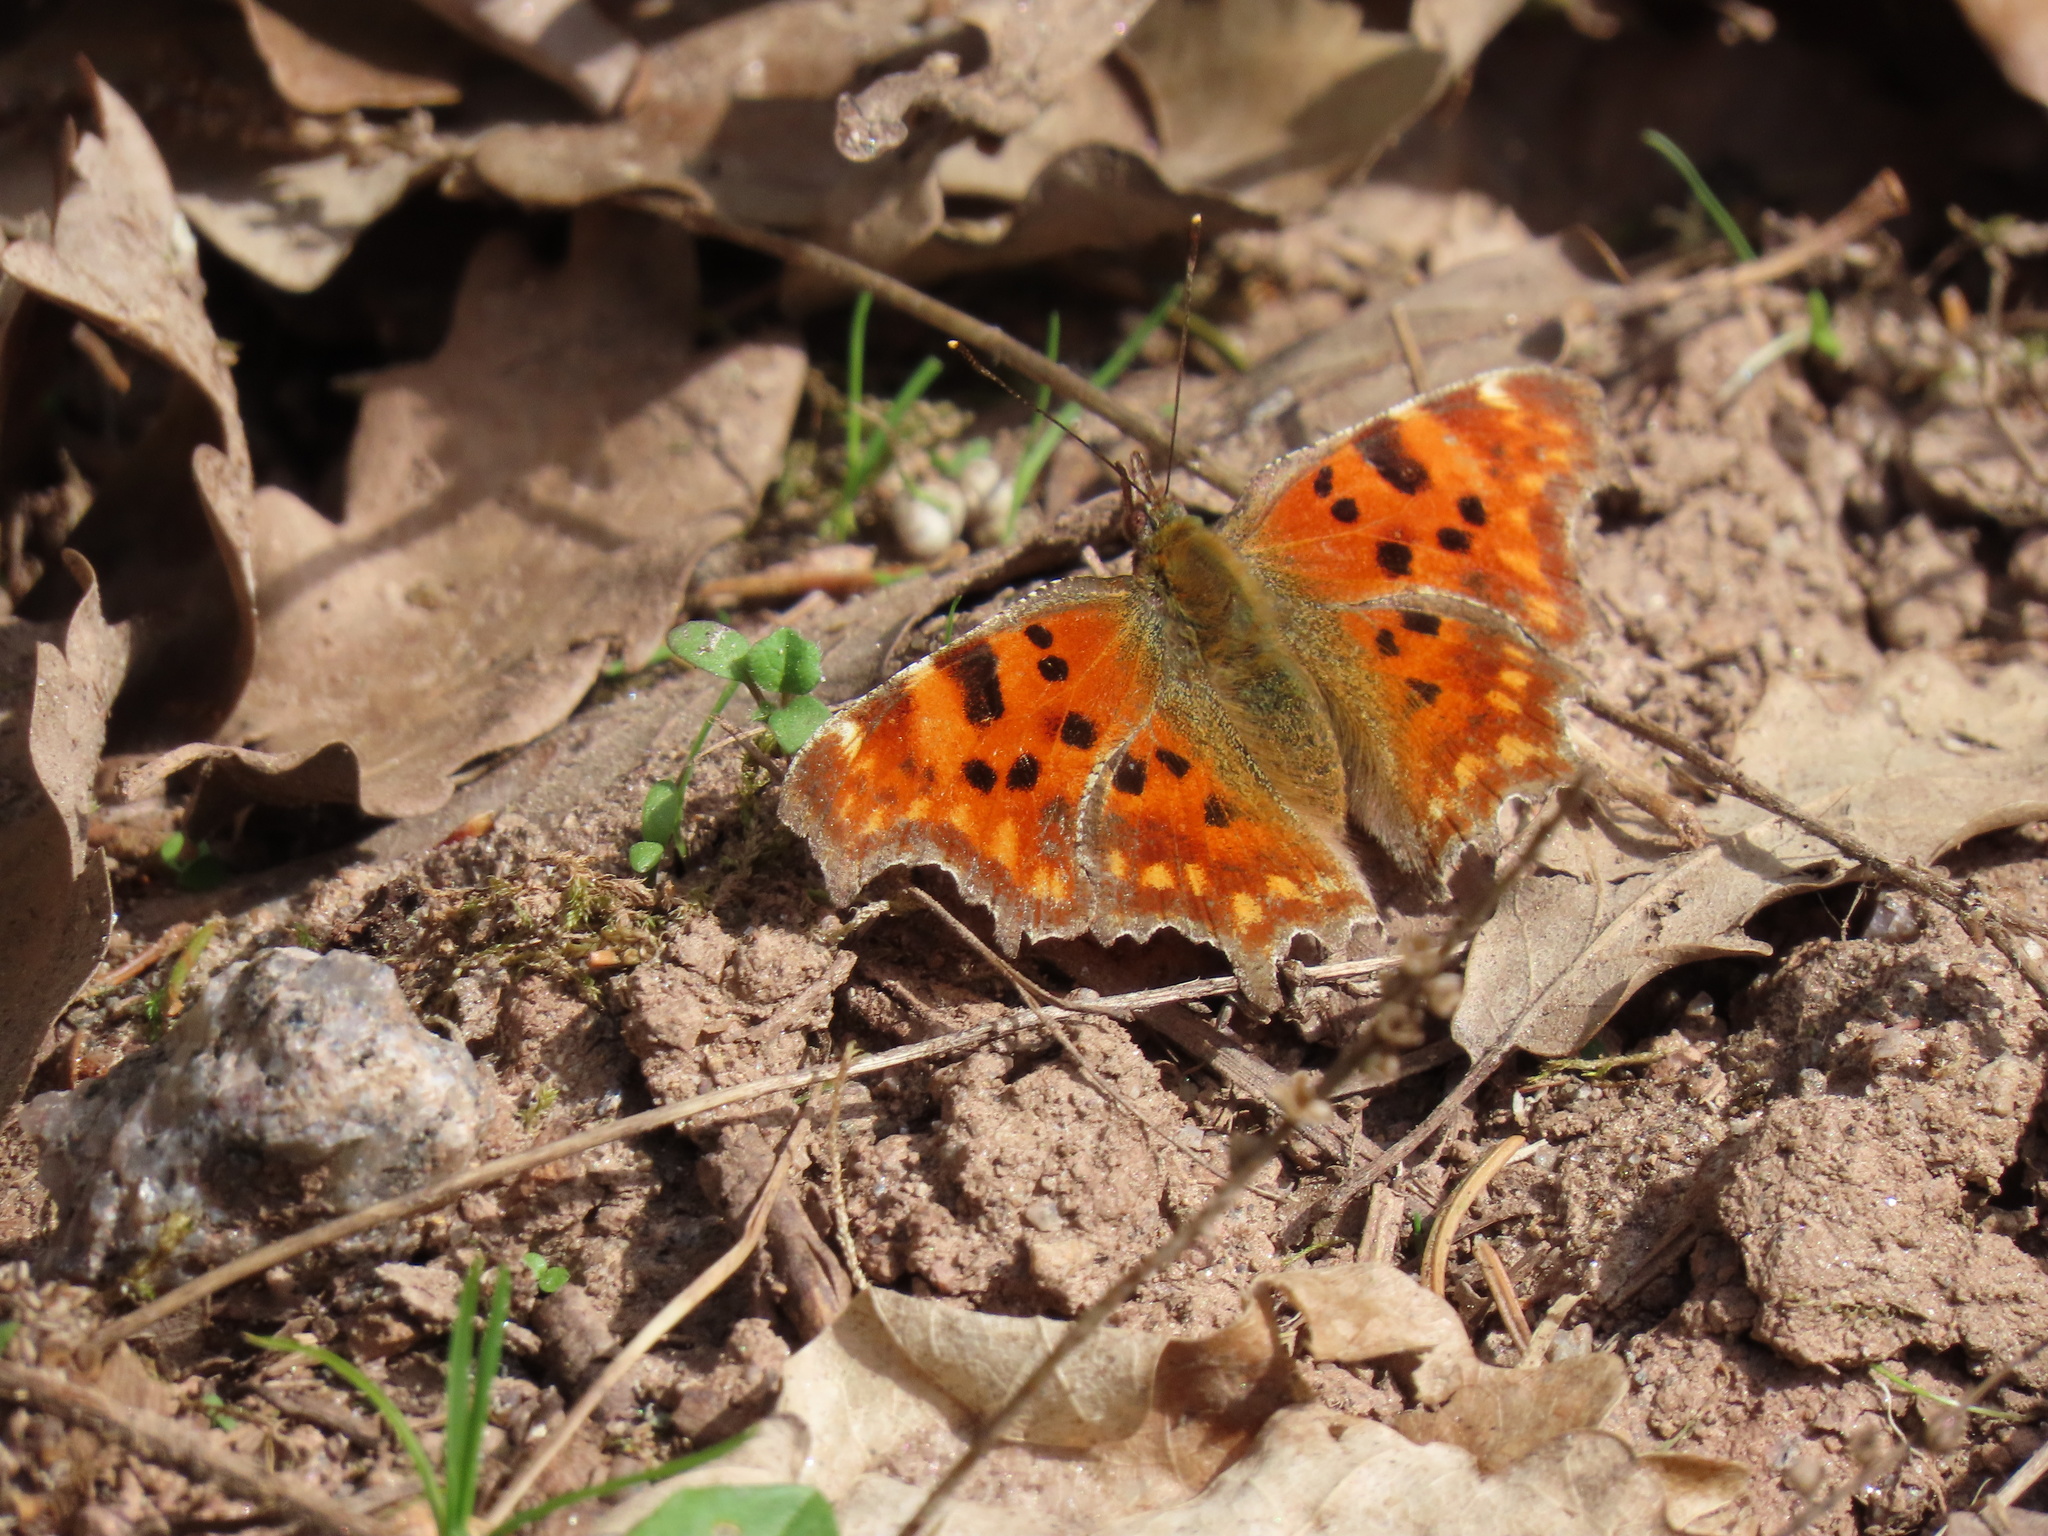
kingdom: Animalia
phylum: Arthropoda
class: Insecta
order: Lepidoptera
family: Nymphalidae
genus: Polygonia
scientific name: Polygonia c-album
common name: Comma
